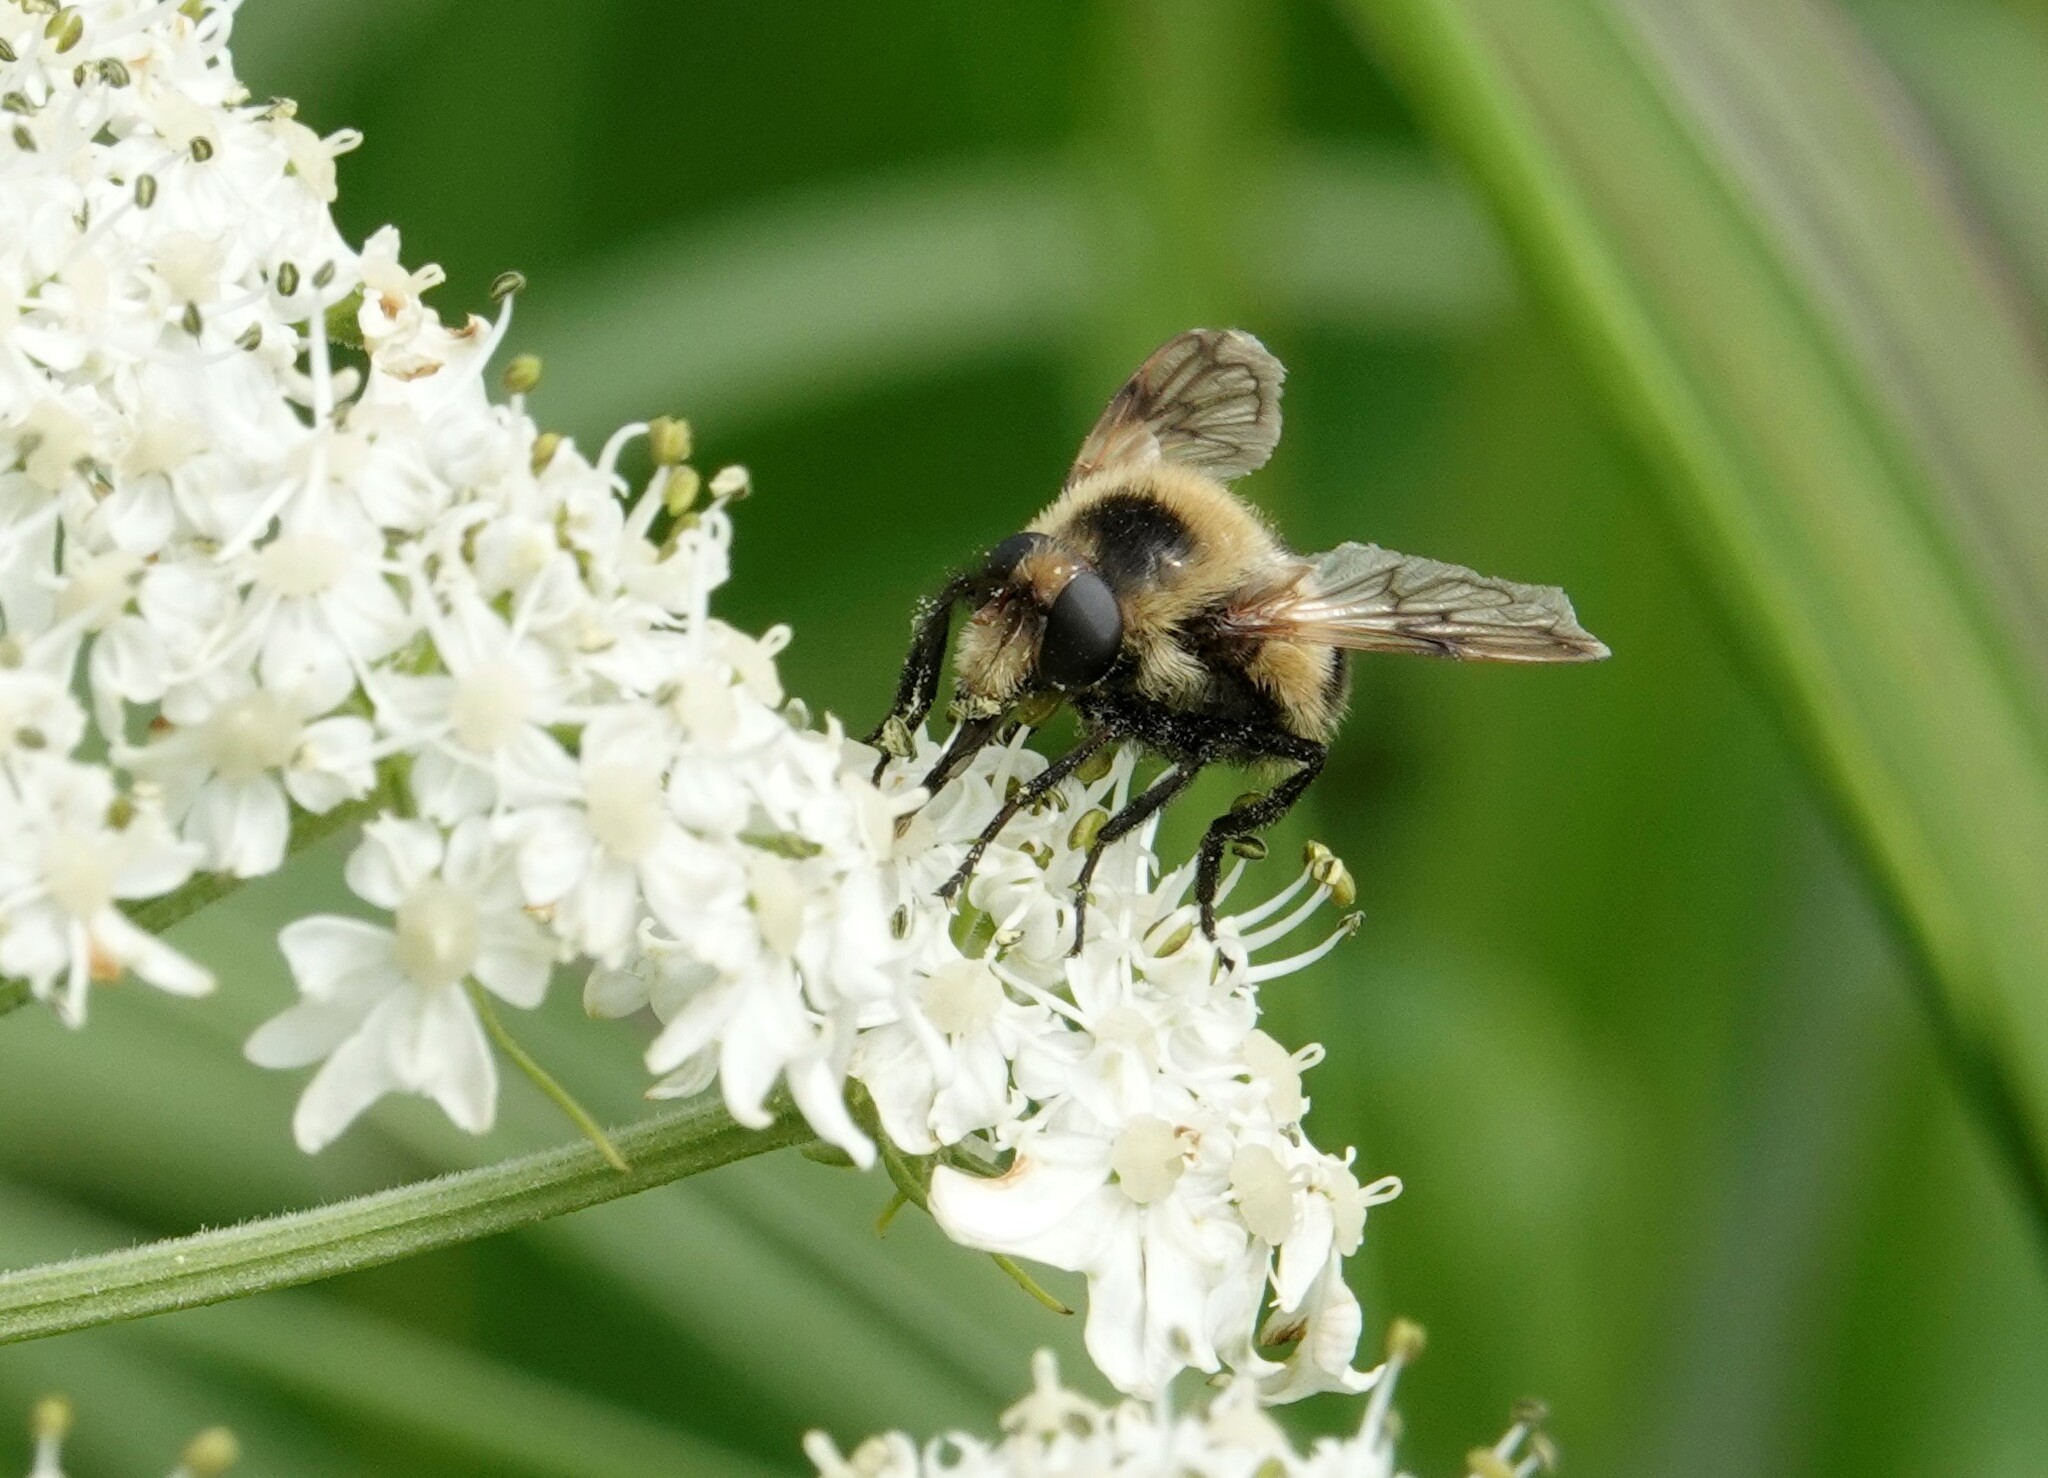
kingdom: Animalia
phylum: Arthropoda
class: Insecta
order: Diptera
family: Syrphidae
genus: Volucella
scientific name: Volucella facialis
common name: Yellow-faced swiftwing
